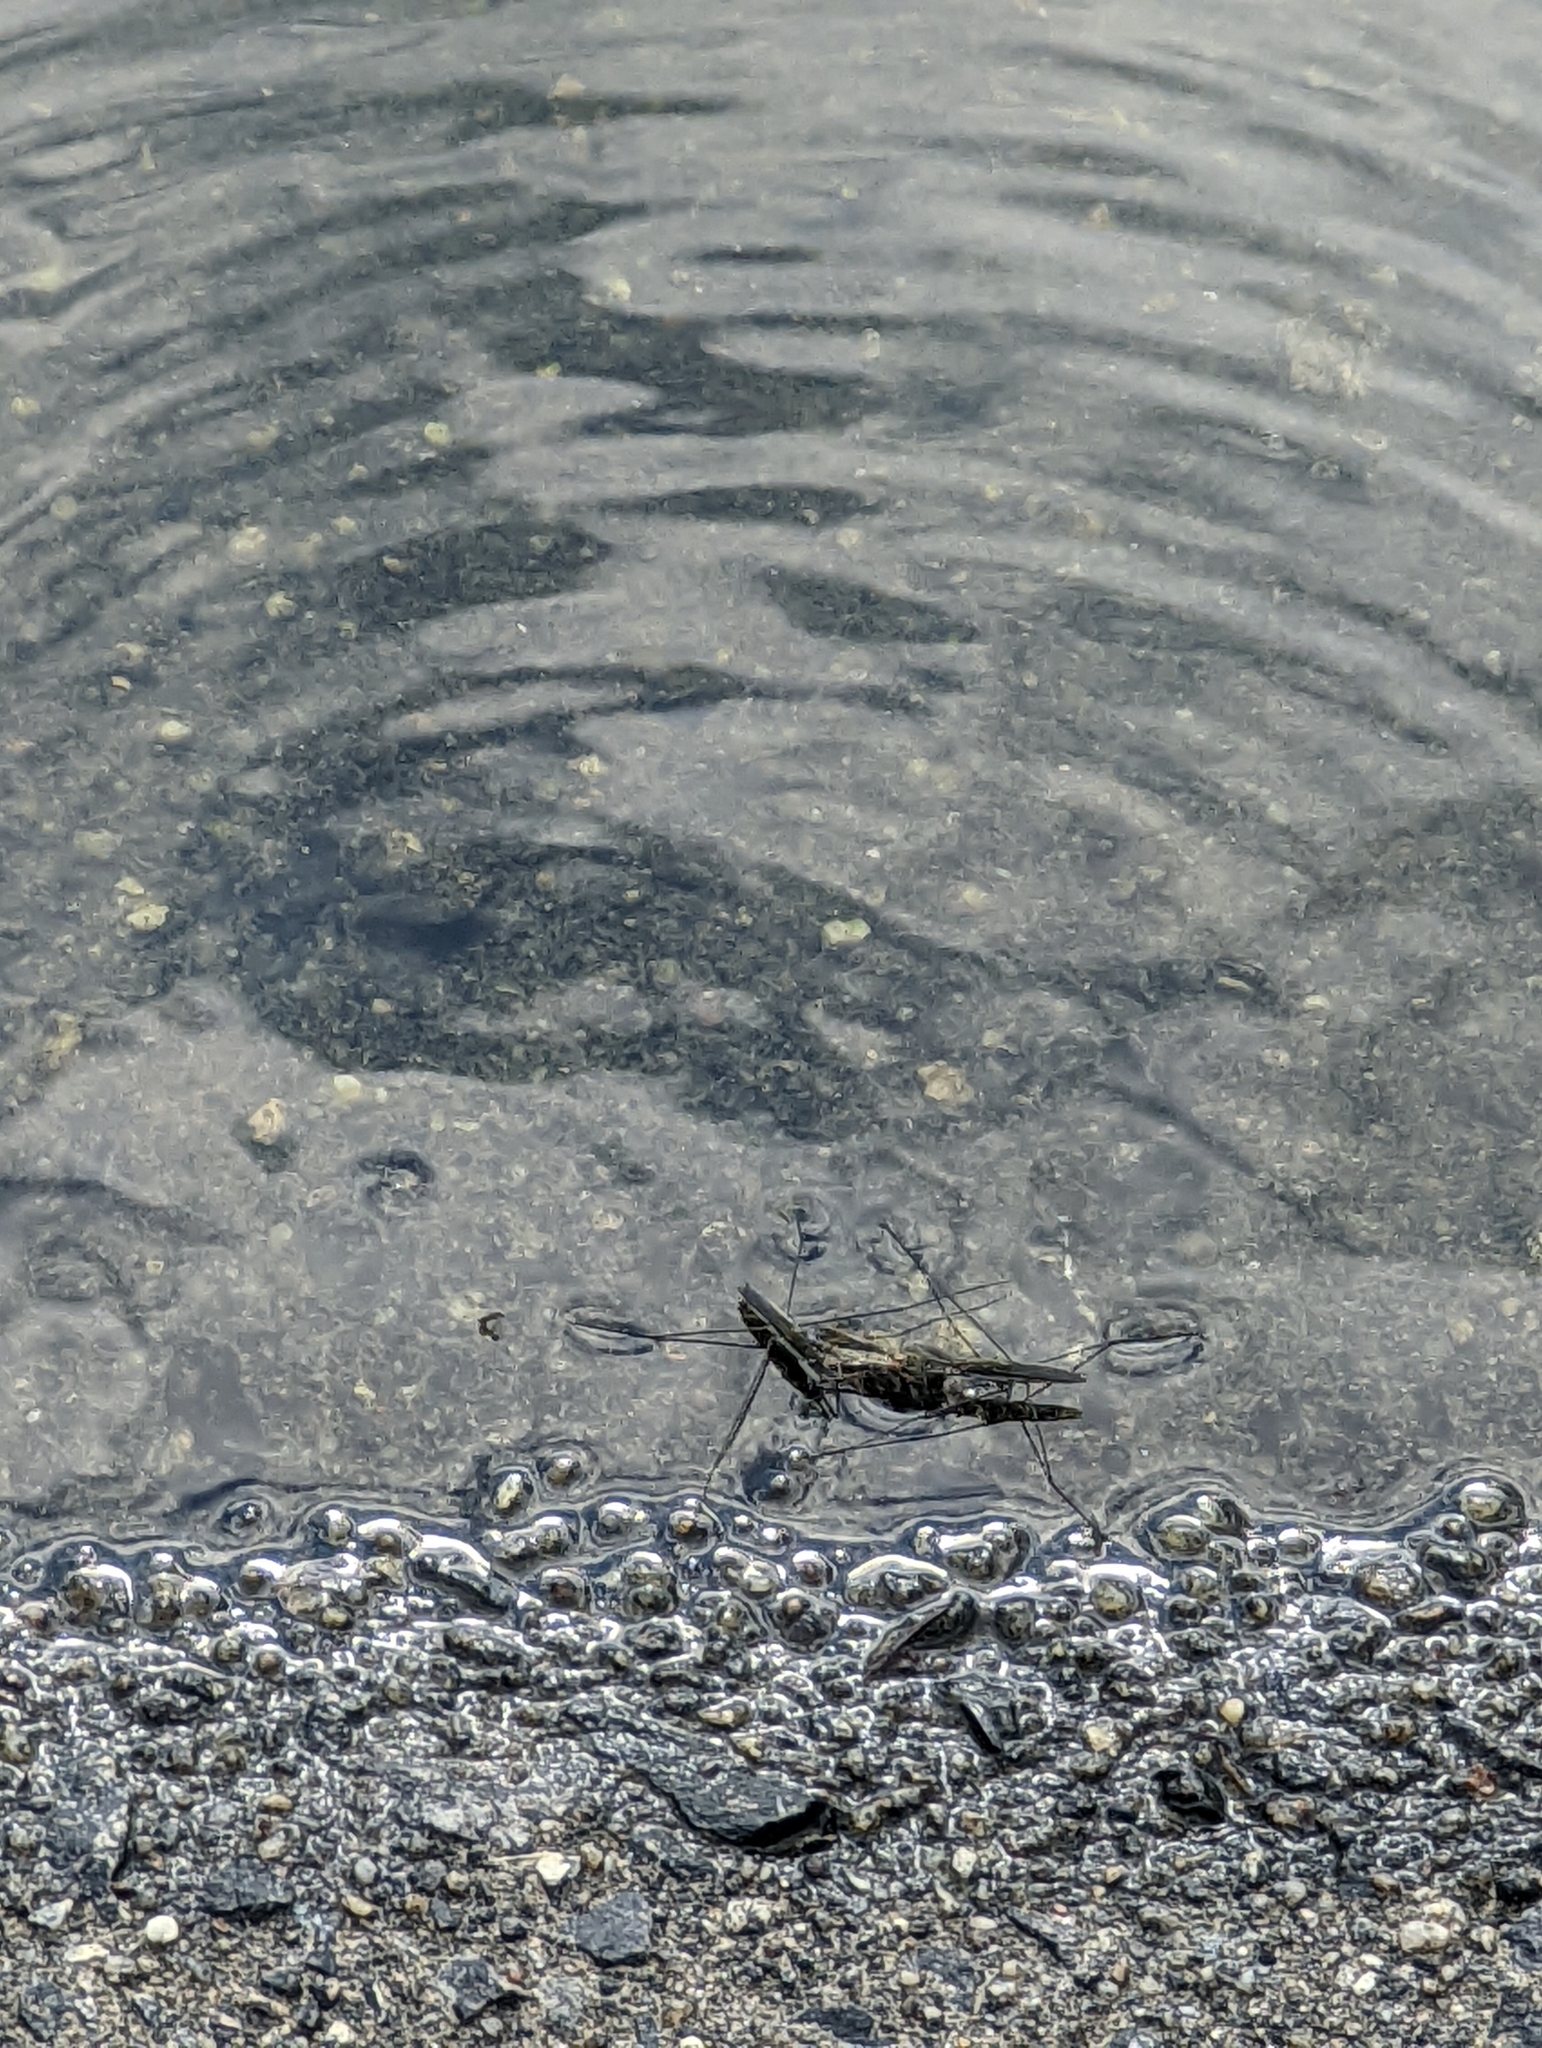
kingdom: Animalia
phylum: Arthropoda
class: Insecta
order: Hemiptera
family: Gerridae
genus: Aquarius
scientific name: Aquarius paludum
